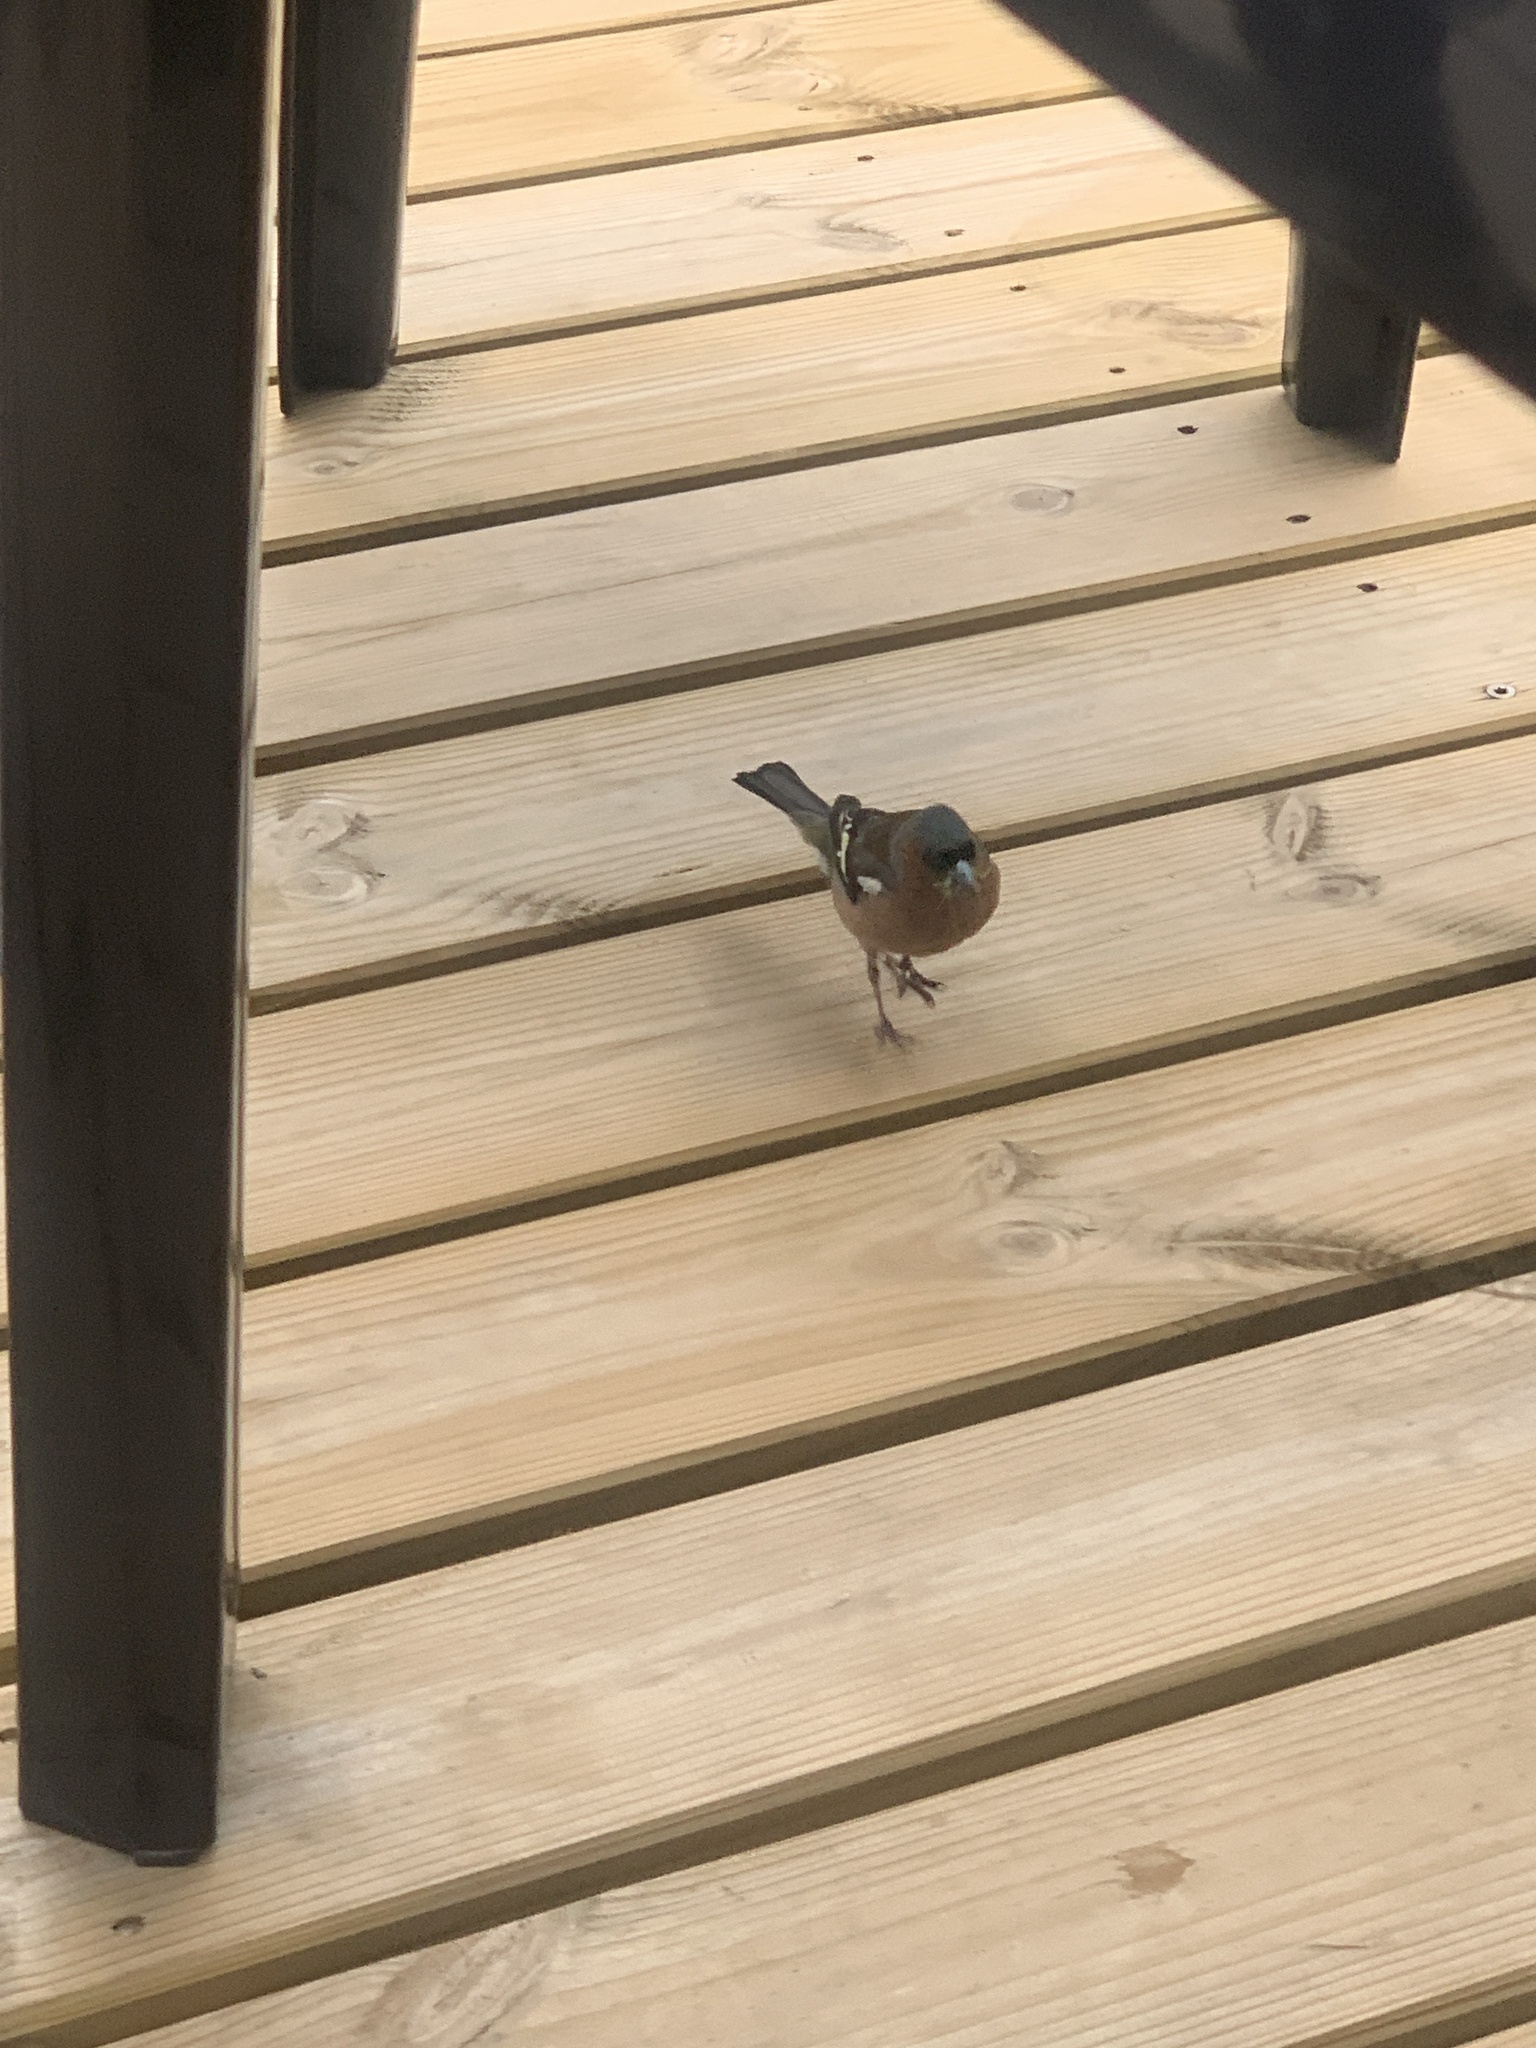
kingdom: Animalia
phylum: Chordata
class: Aves
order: Passeriformes
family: Fringillidae
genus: Fringilla
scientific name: Fringilla coelebs
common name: Common chaffinch
